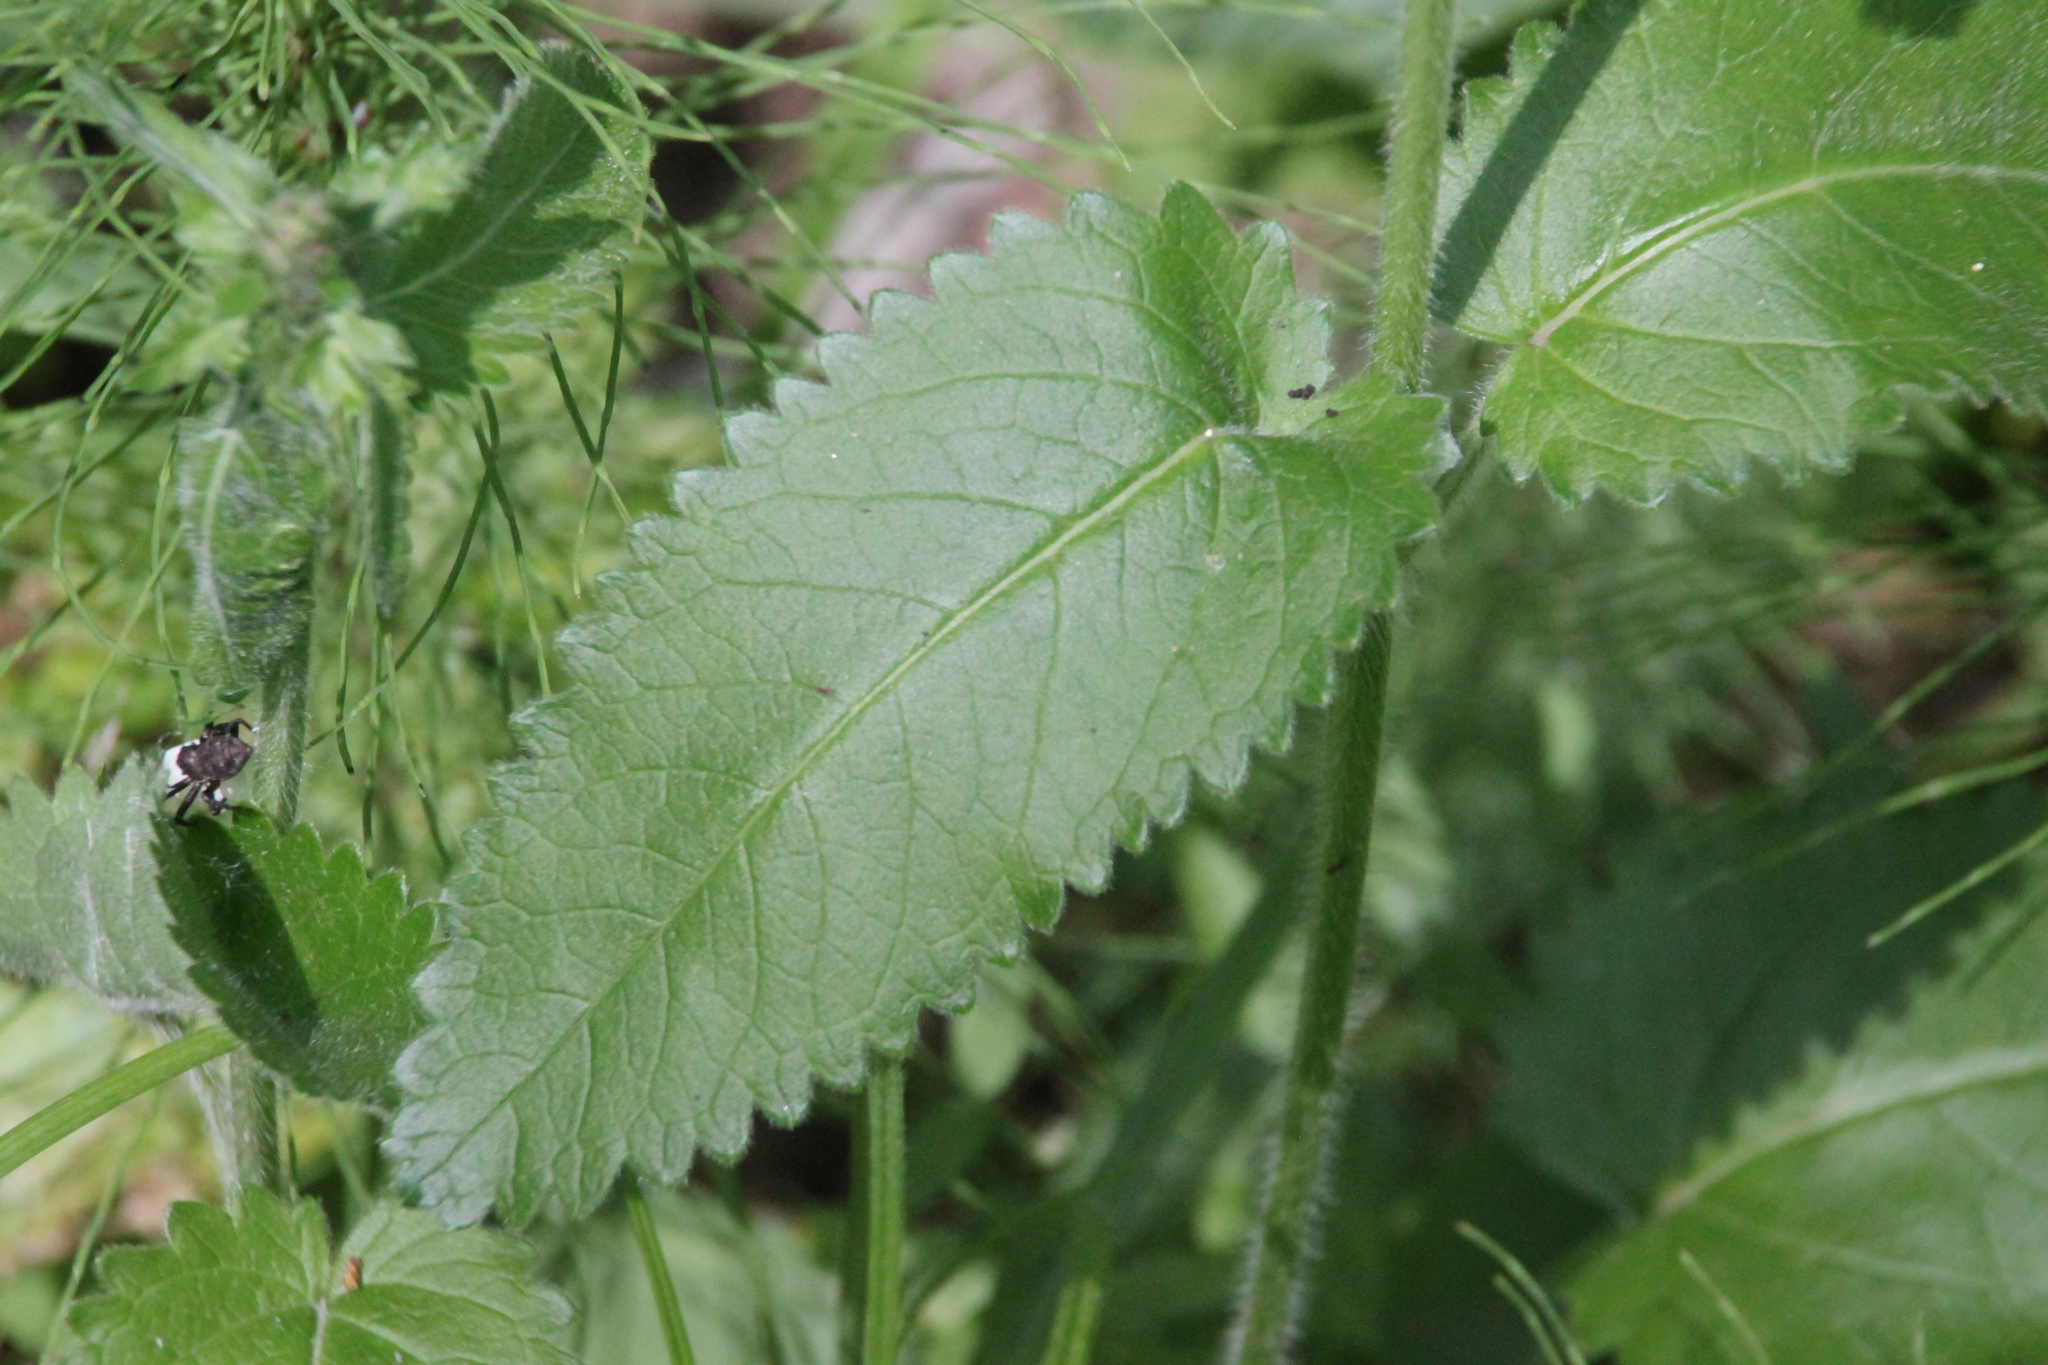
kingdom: Plantae
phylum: Tracheophyta
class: Magnoliopsida
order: Lamiales
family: Lamiaceae
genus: Betonica
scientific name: Betonica officinalis
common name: Bishop's-wort
